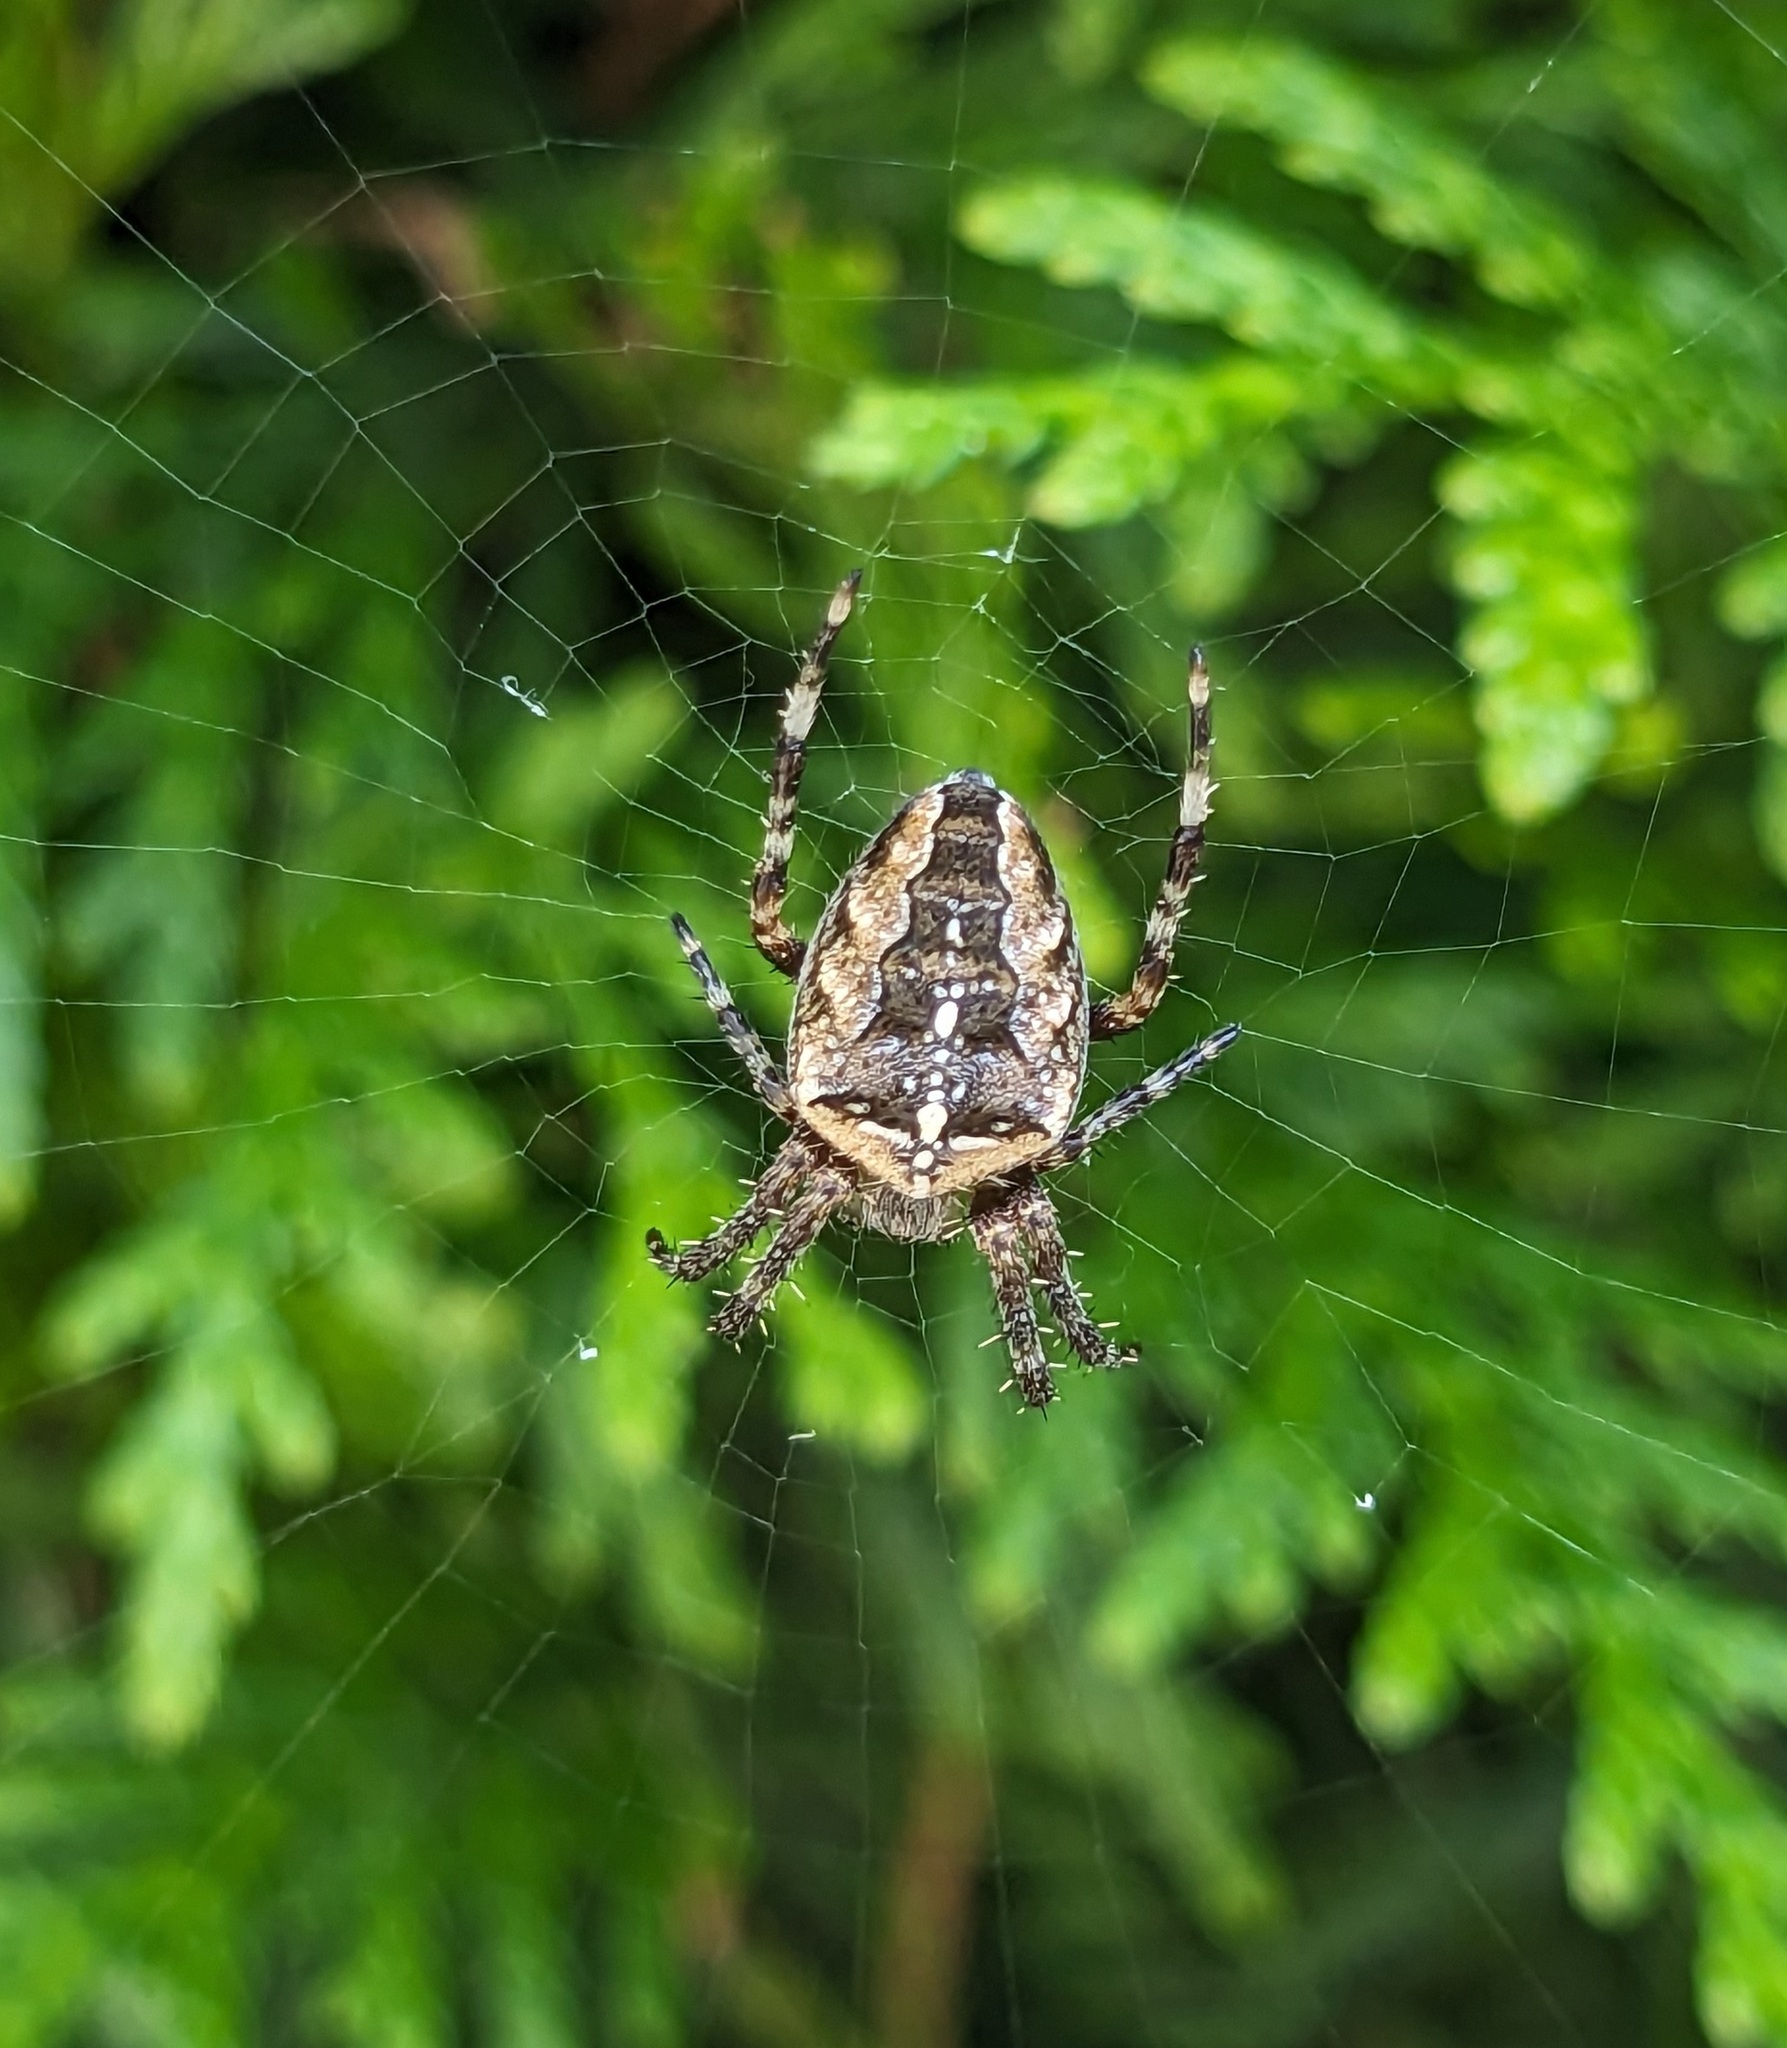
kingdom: Animalia
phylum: Arthropoda
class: Arachnida
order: Araneae
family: Araneidae
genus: Araneus
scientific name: Araneus diadematus
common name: Cross orbweaver
